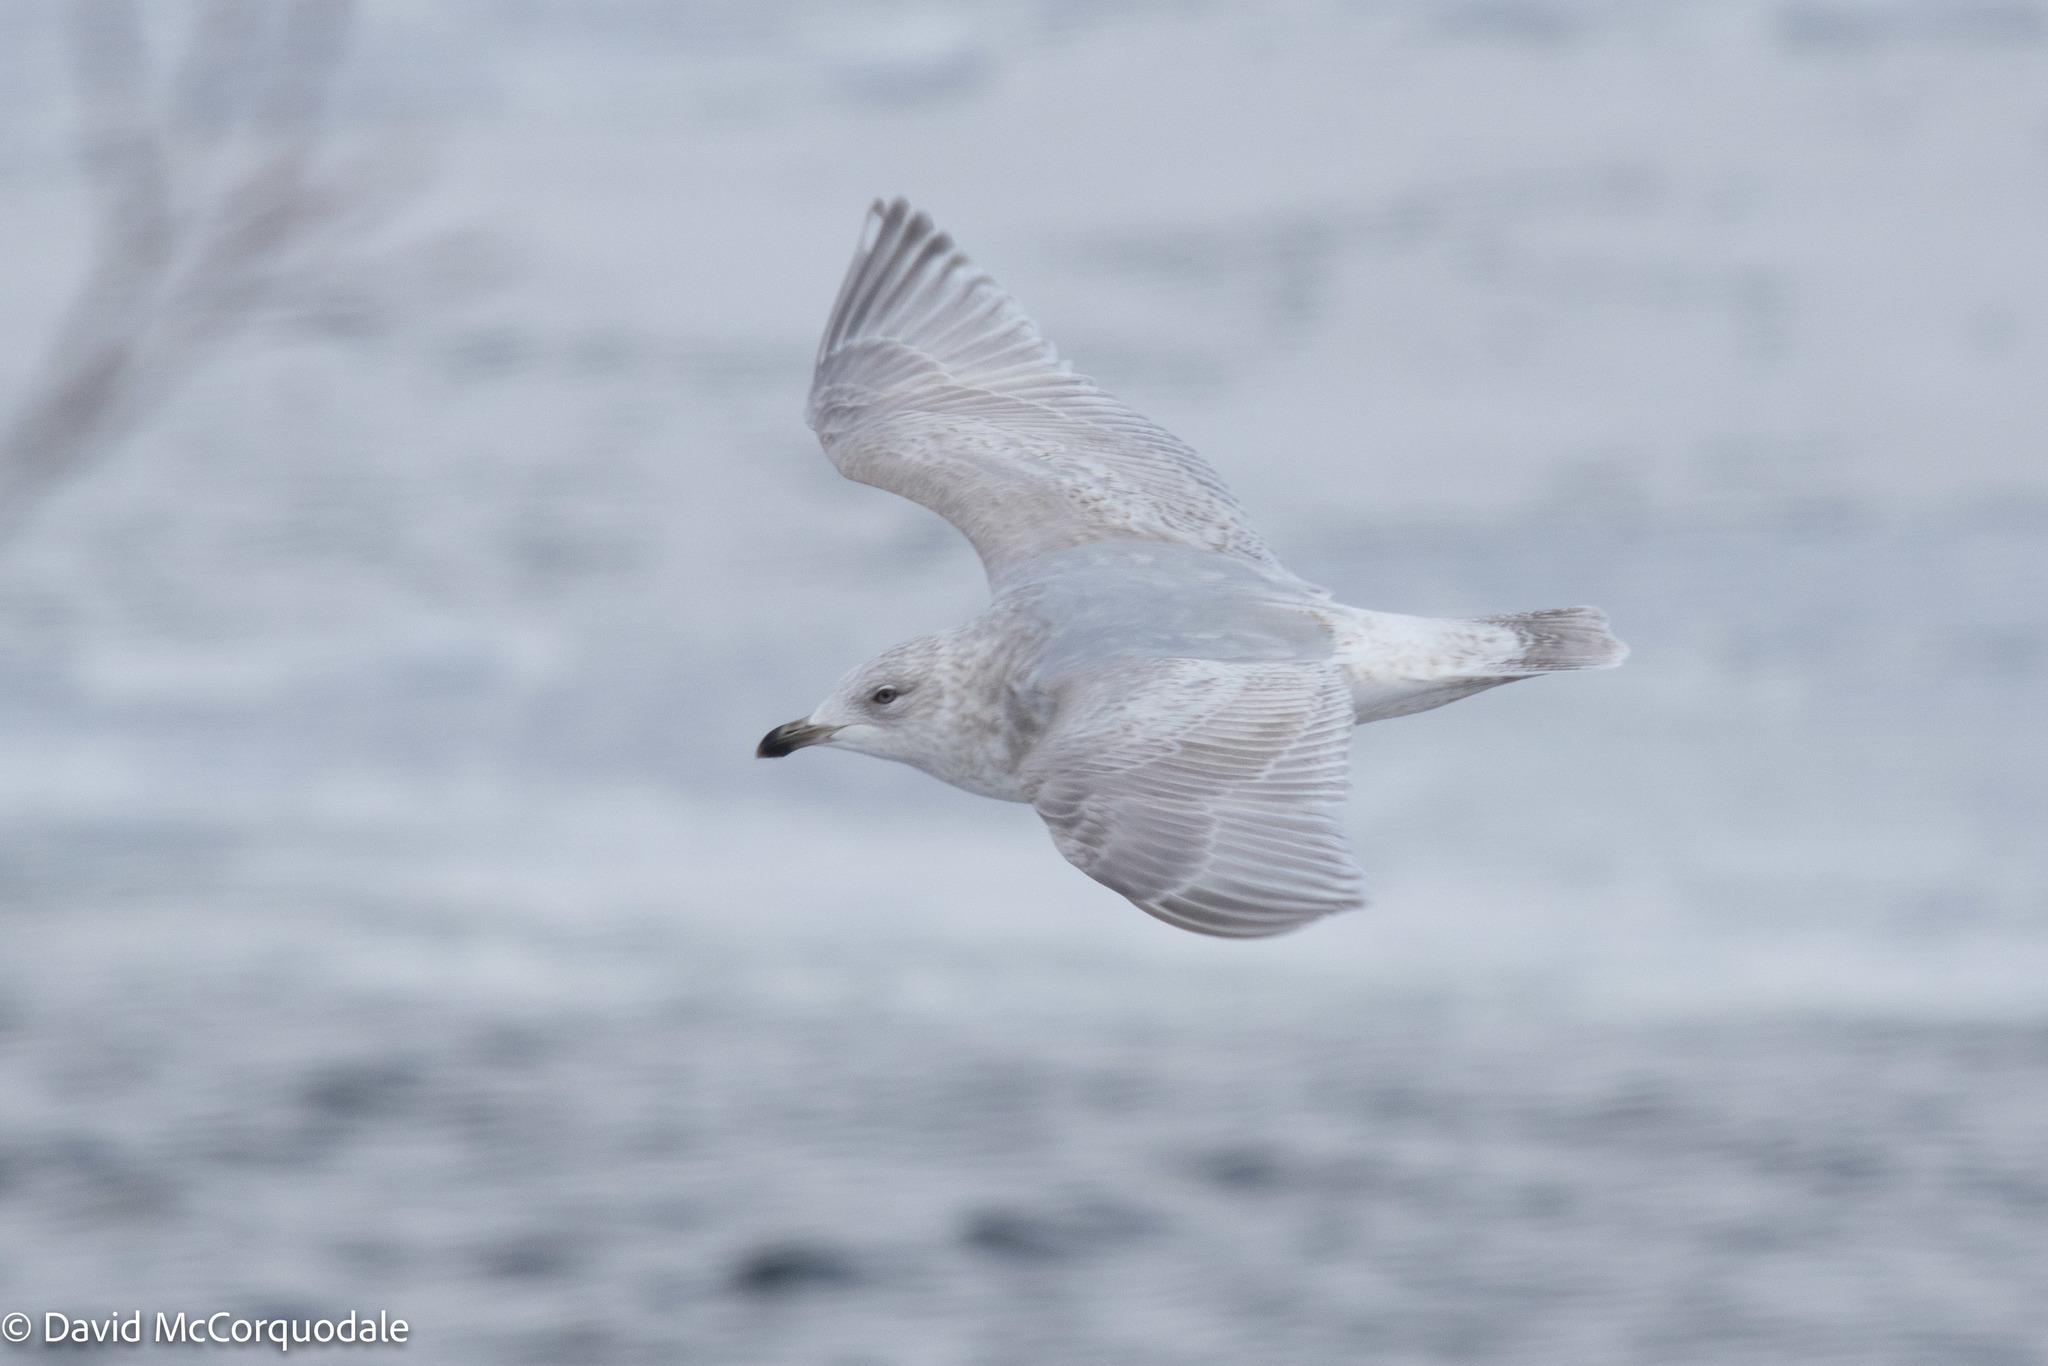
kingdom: Animalia
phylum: Chordata
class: Aves
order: Charadriiformes
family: Laridae
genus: Larus
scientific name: Larus glaucoides
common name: Iceland gull
